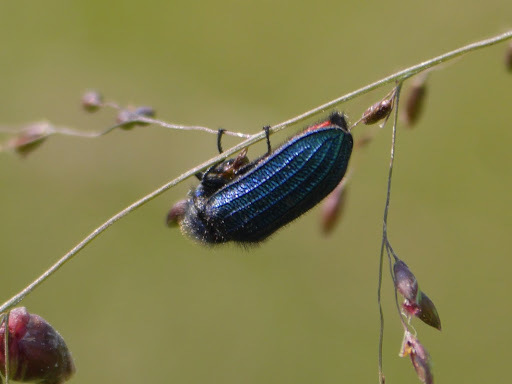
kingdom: Animalia
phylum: Arthropoda
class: Insecta
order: Coleoptera
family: Melyridae
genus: Melyris
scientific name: Melyris
